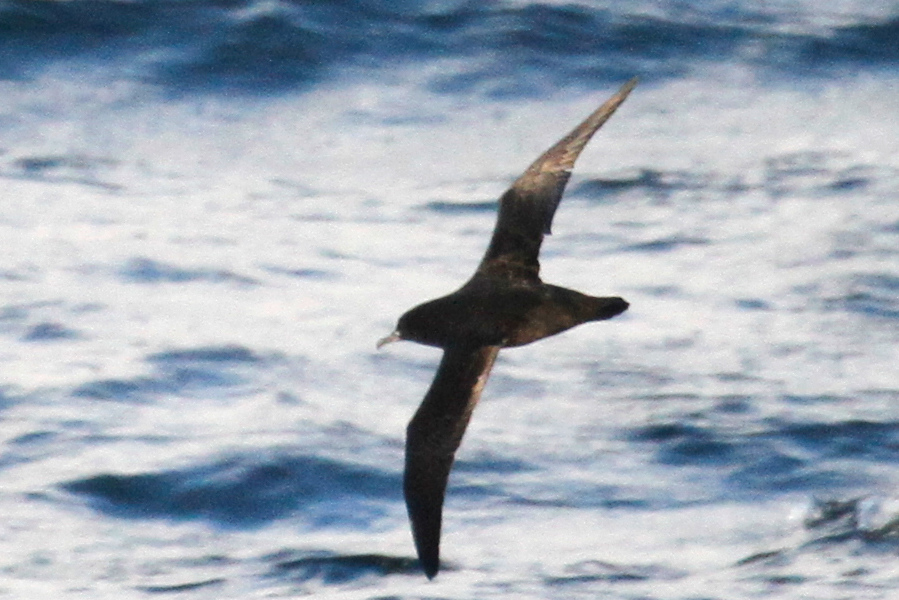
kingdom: Animalia
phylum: Chordata
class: Aves
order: Procellariiformes
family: Procellariidae
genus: Puffinus
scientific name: Puffinus griseus
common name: Sooty shearwater
